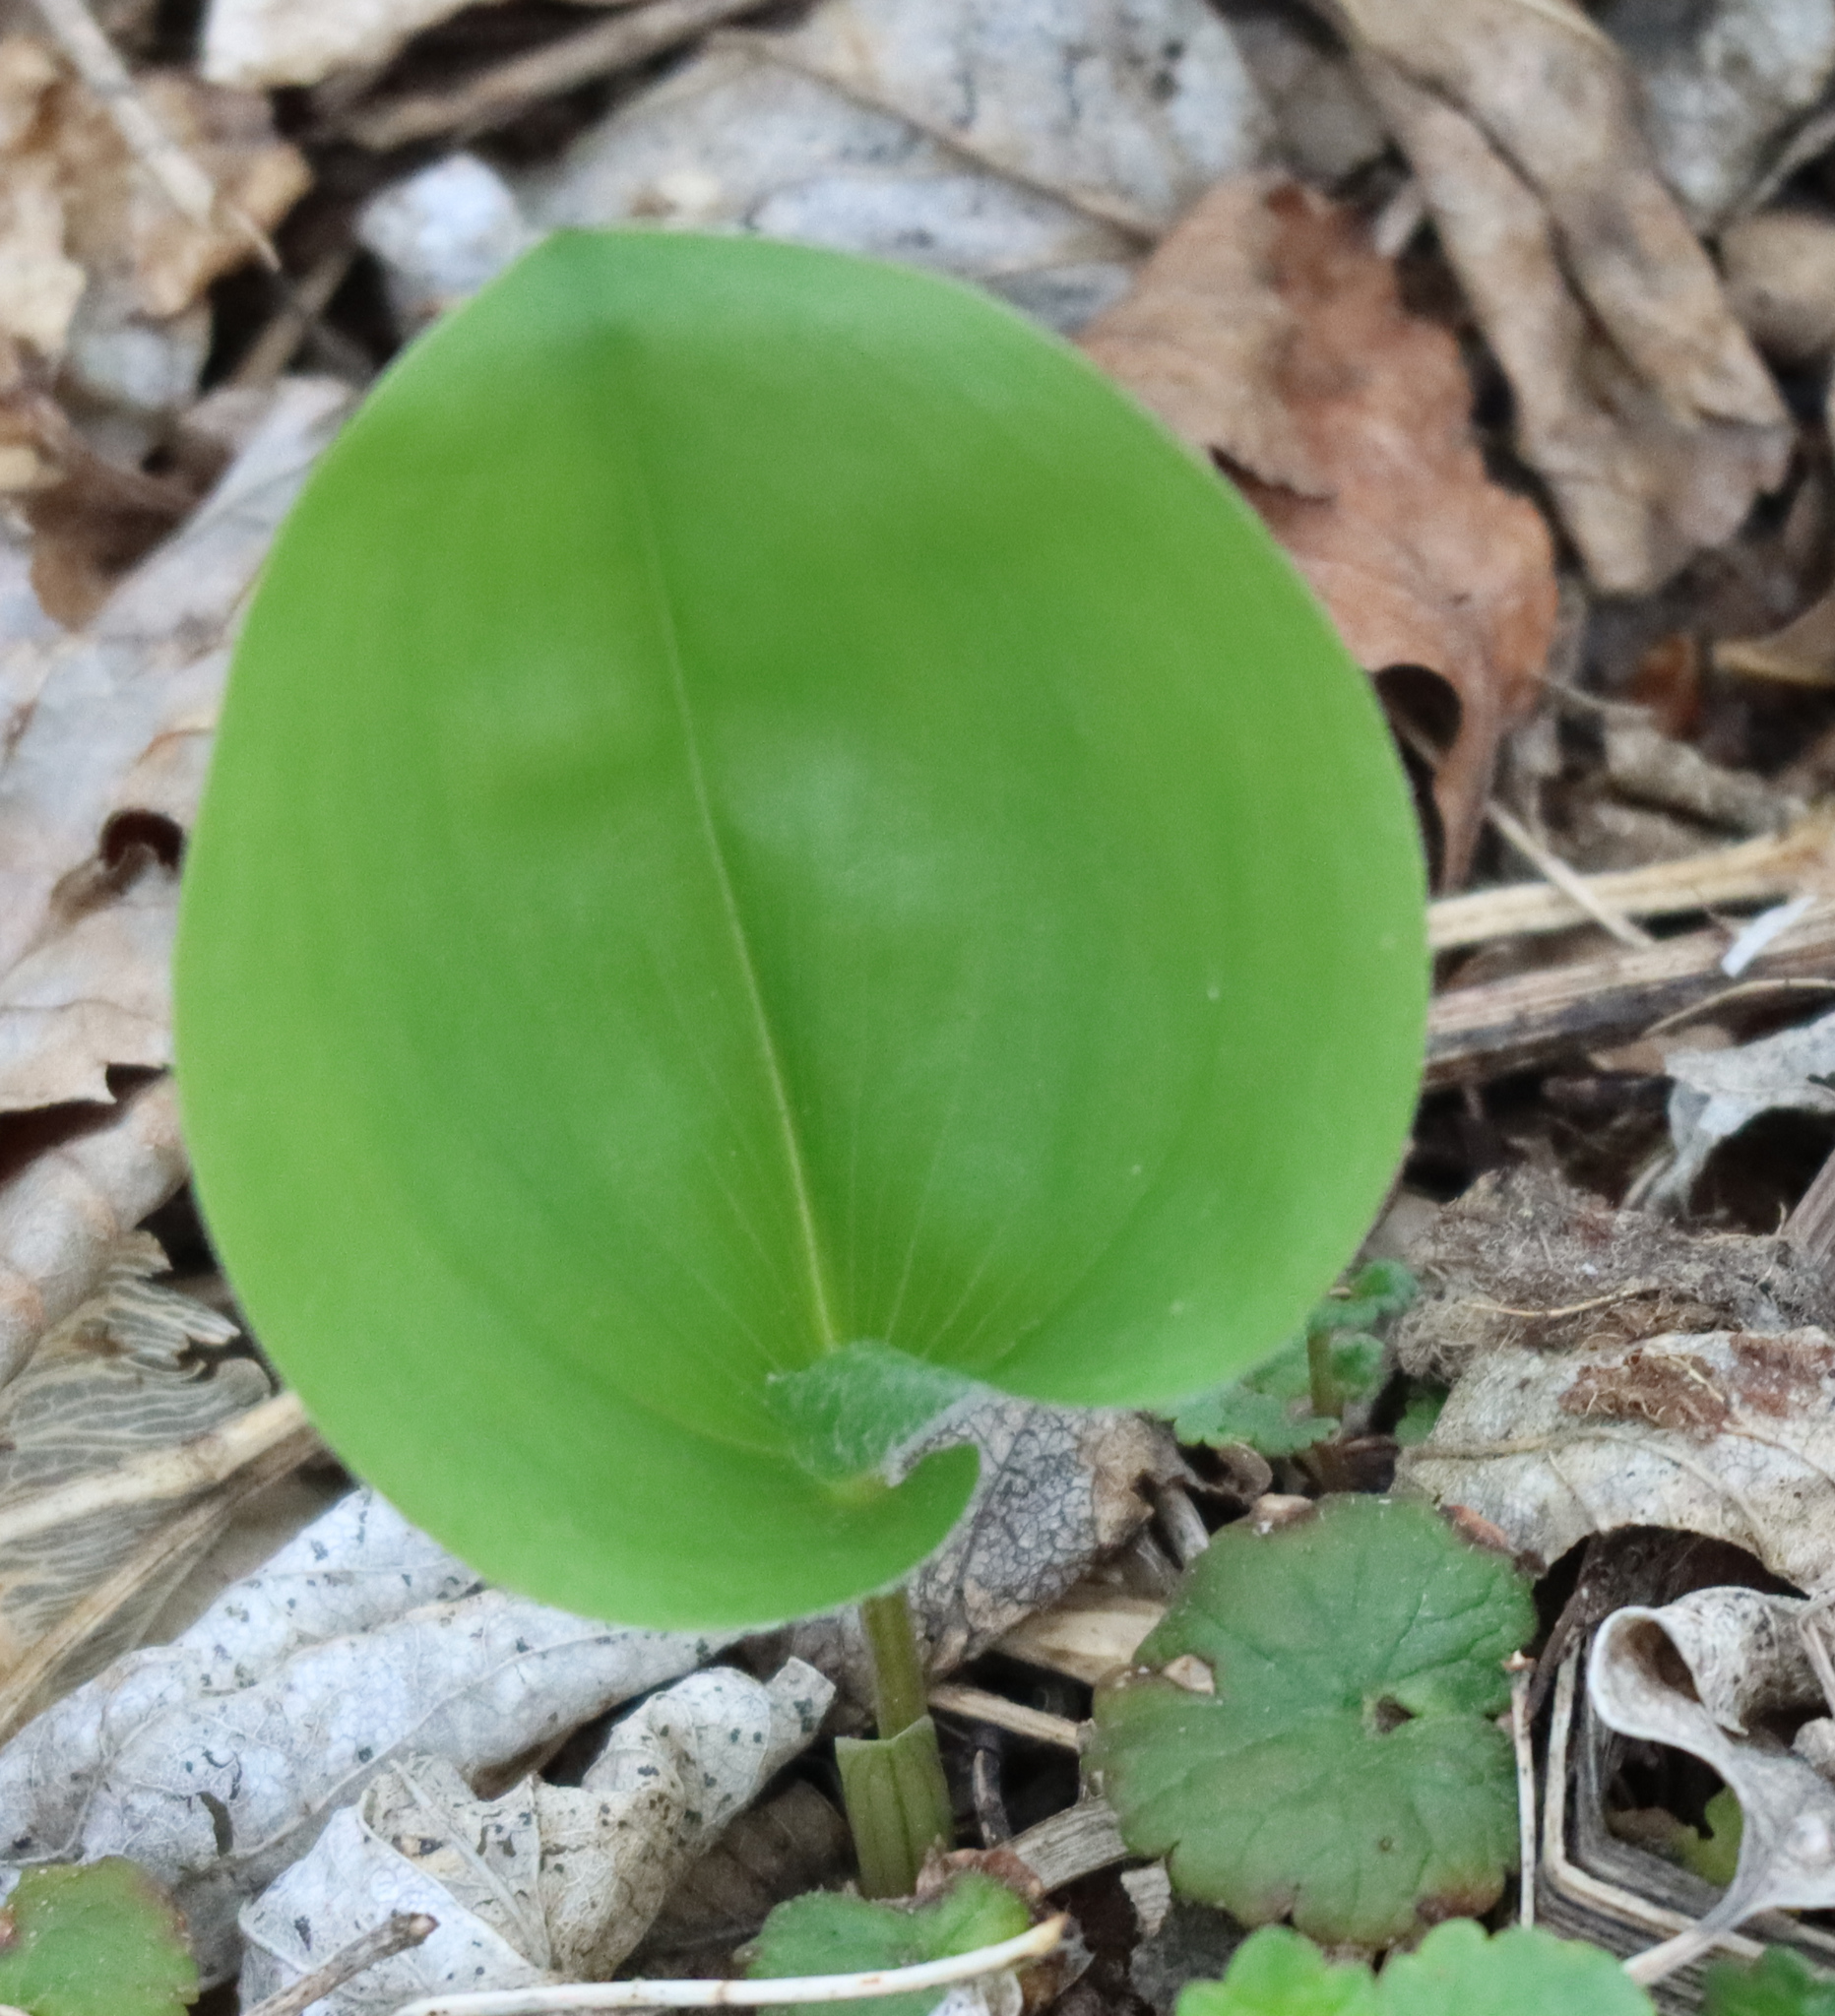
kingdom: Plantae
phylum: Tracheophyta
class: Liliopsida
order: Asparagales
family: Asparagaceae
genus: Maianthemum
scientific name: Maianthemum canadense
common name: False lily-of-the-valley
